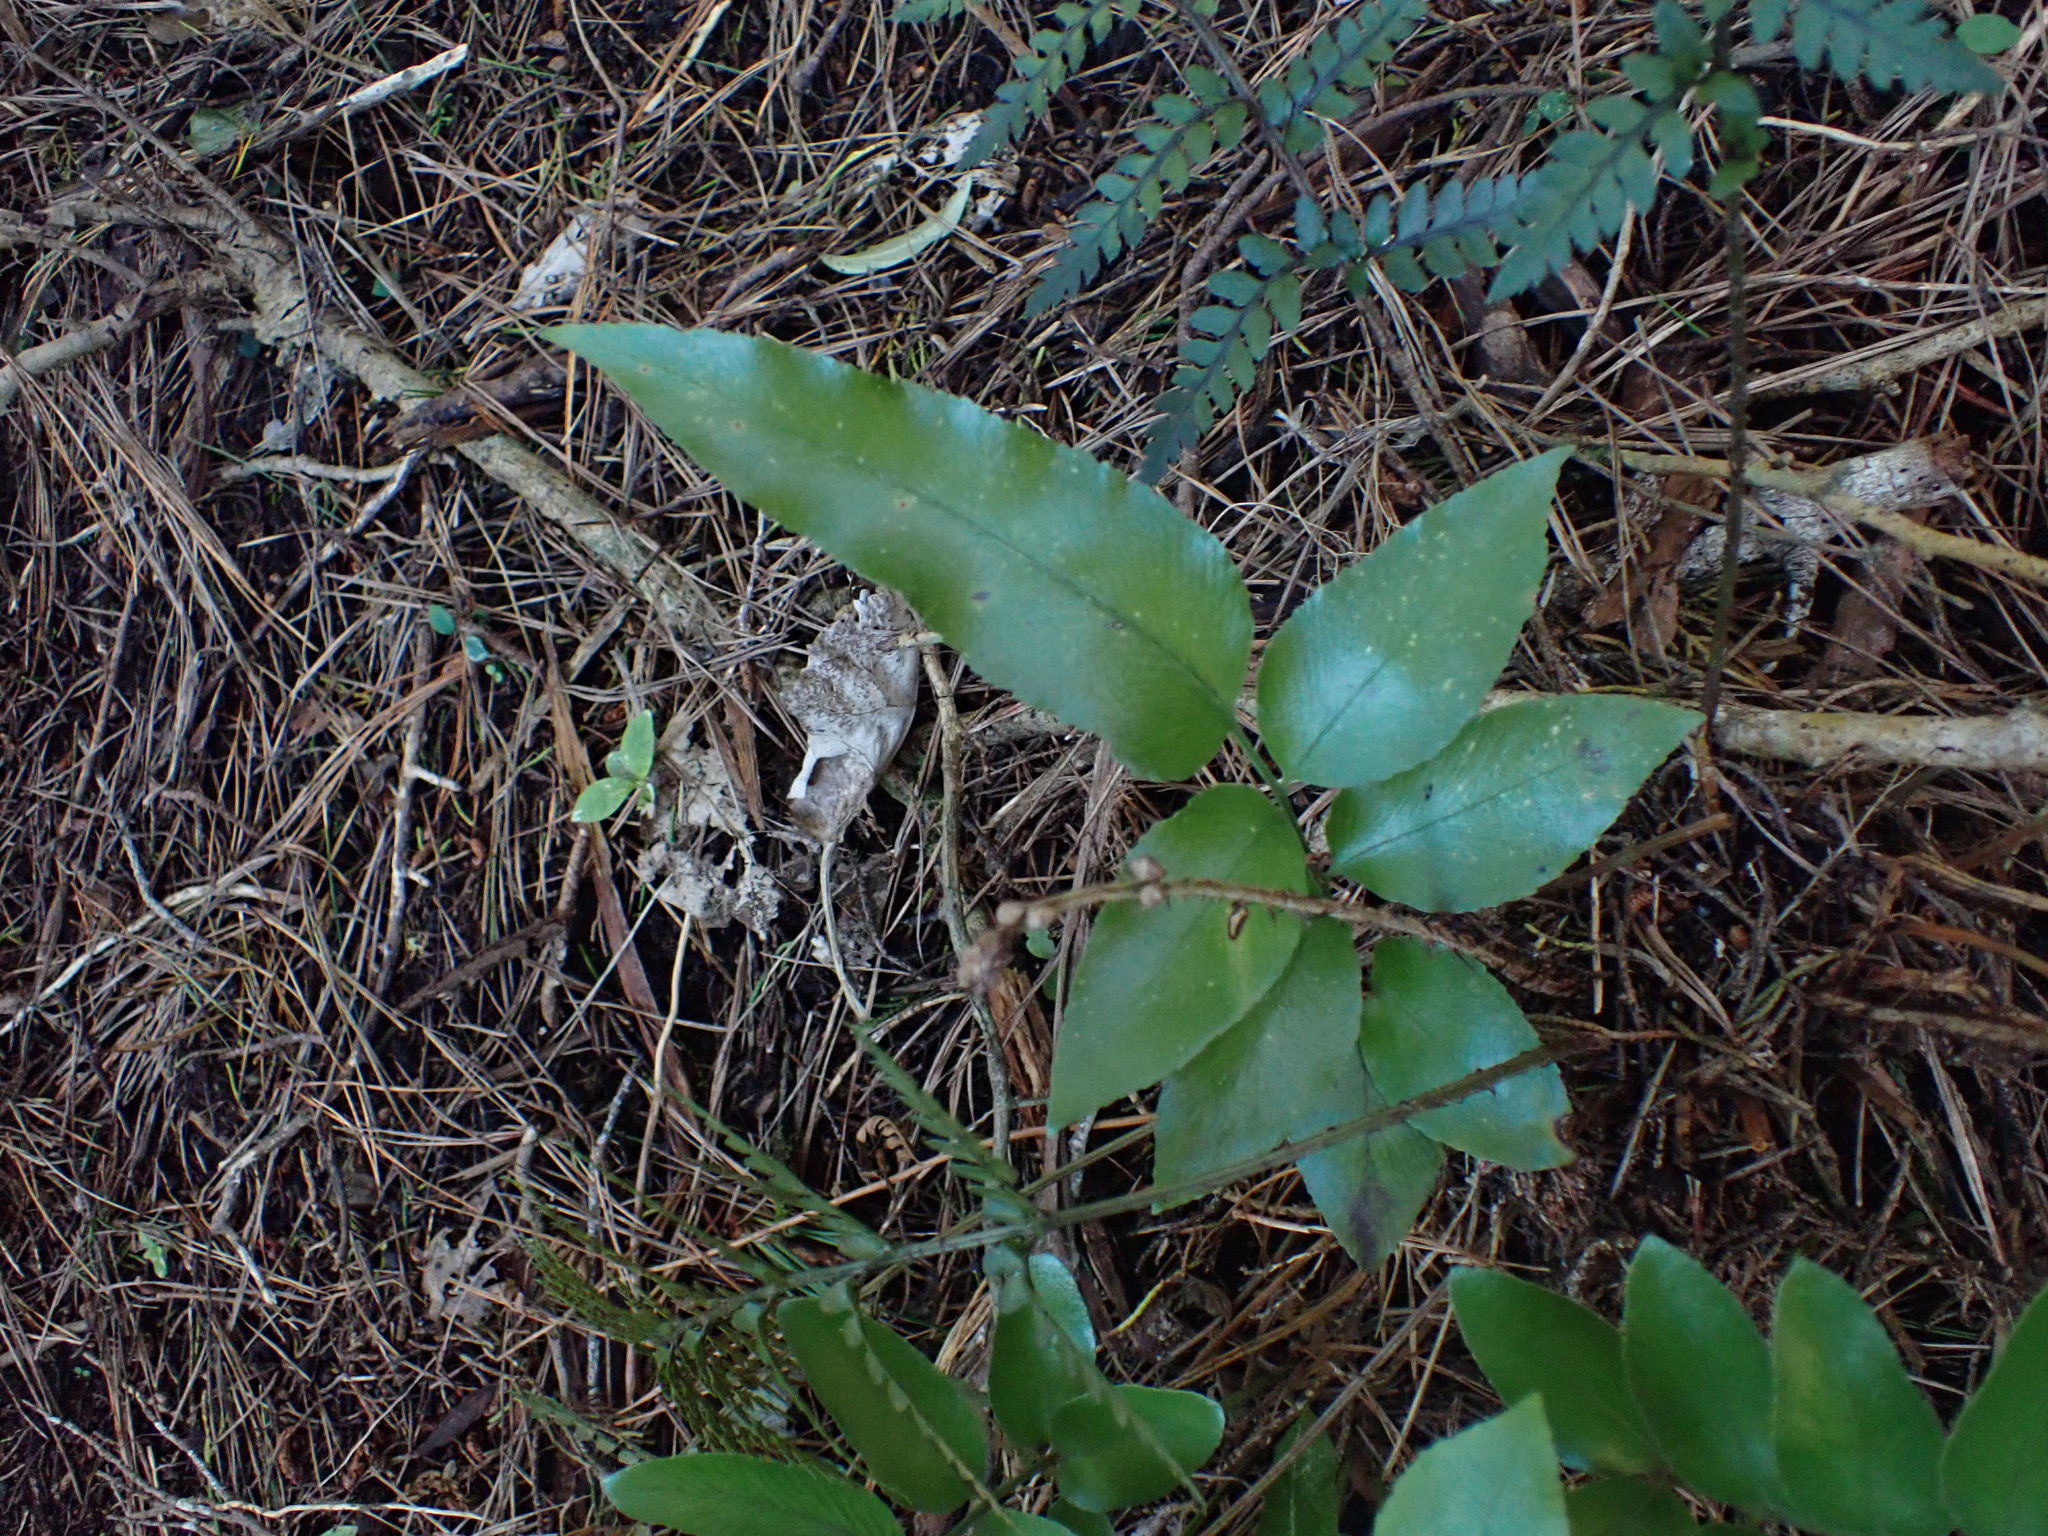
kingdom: Plantae
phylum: Tracheophyta
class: Polypodiopsida
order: Polypodiales
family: Aspleniaceae
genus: Asplenium
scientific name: Asplenium oblongifolium
